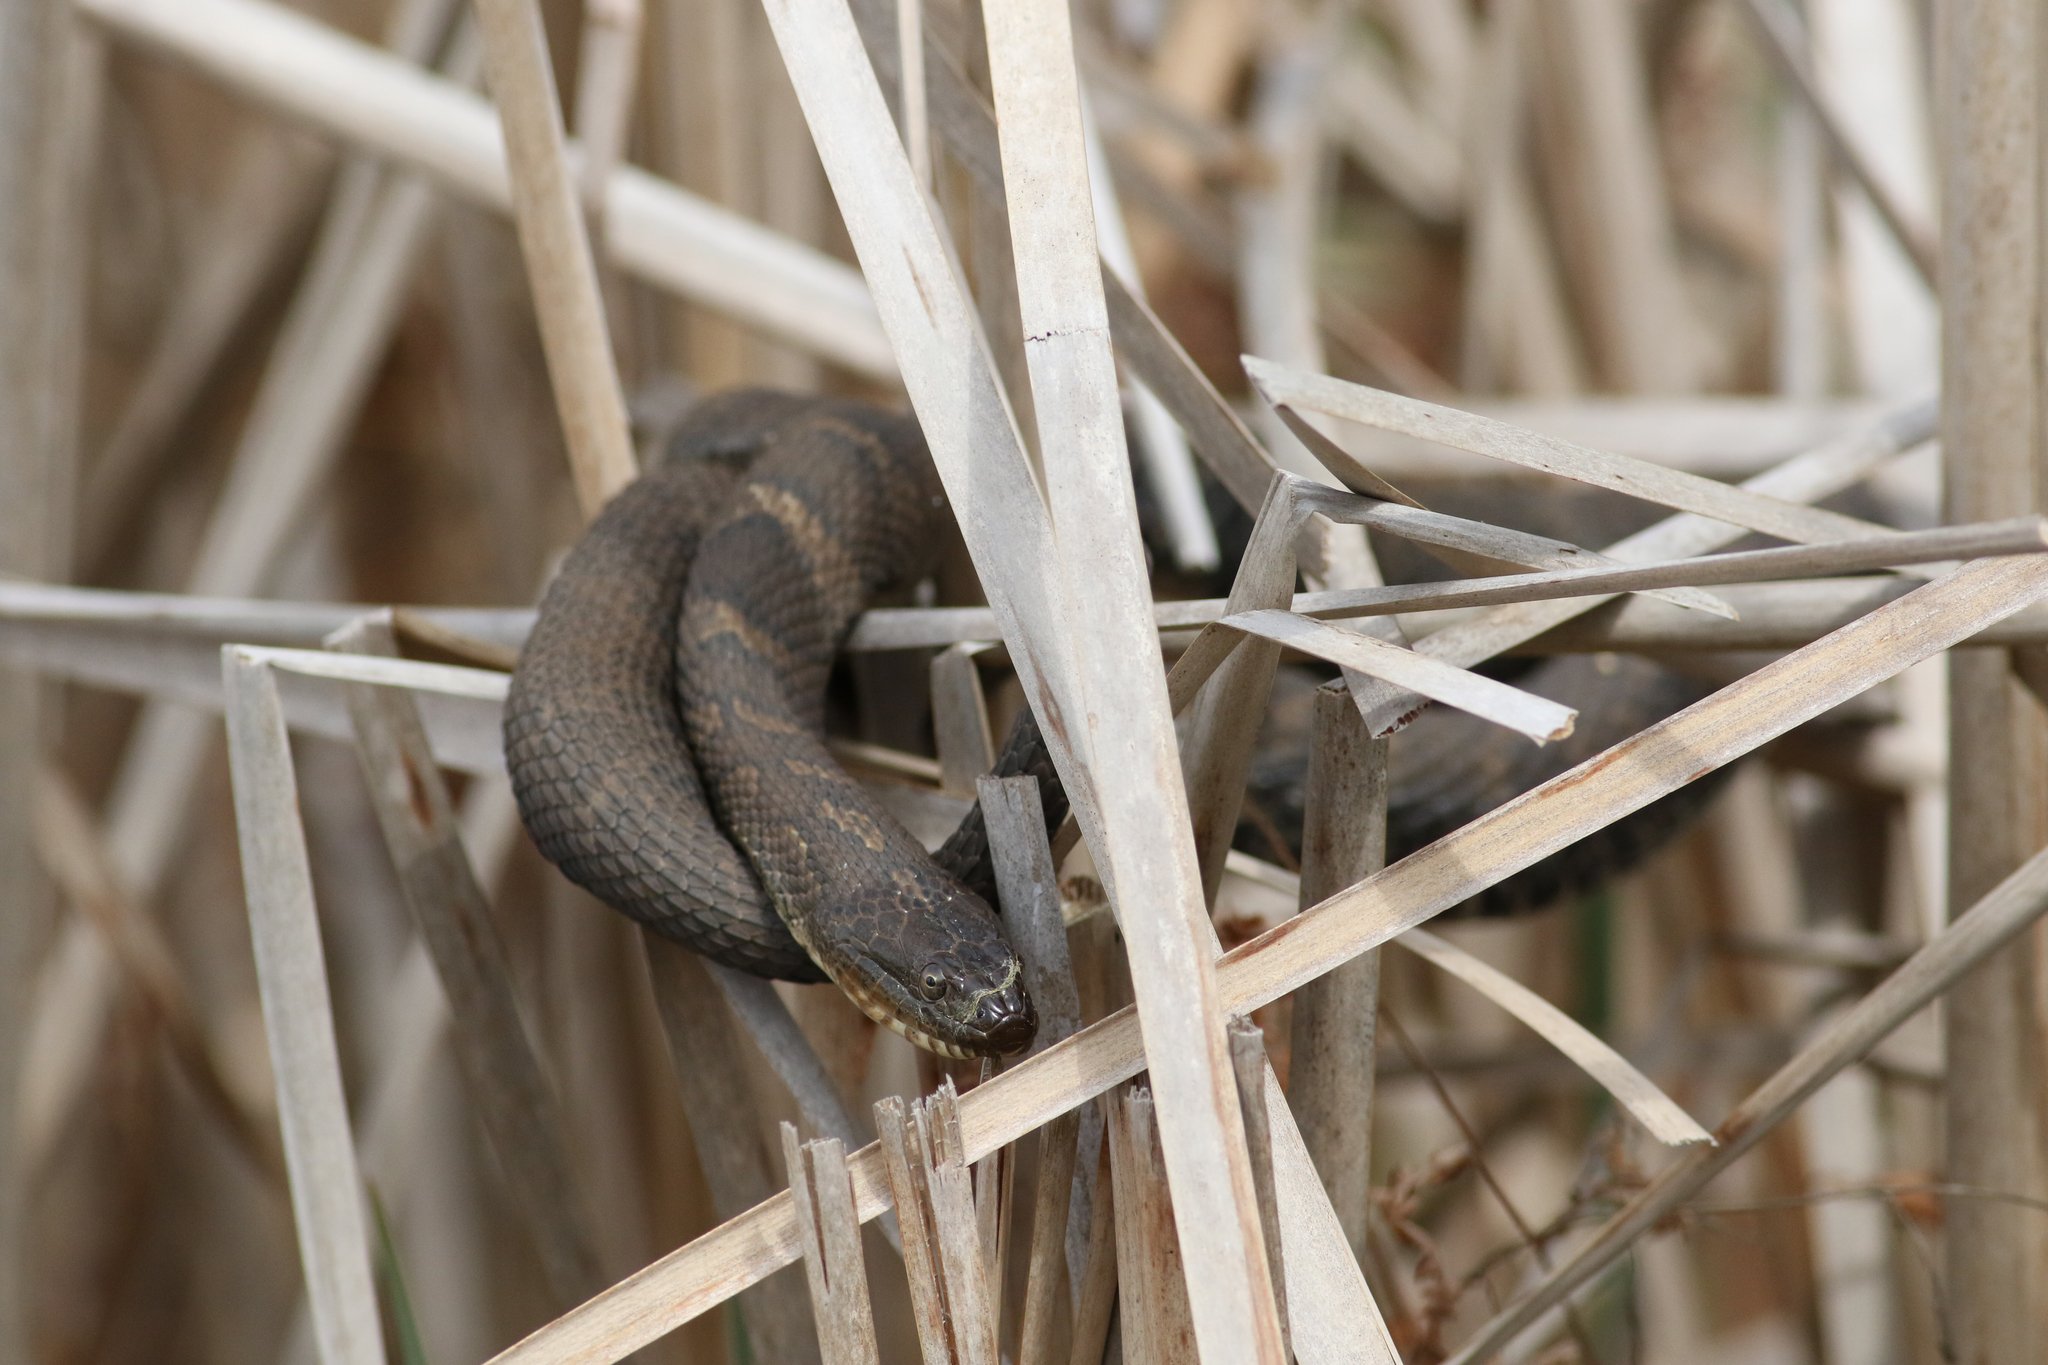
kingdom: Animalia
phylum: Chordata
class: Squamata
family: Colubridae
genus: Nerodia
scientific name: Nerodia sipedon
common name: Northern water snake
